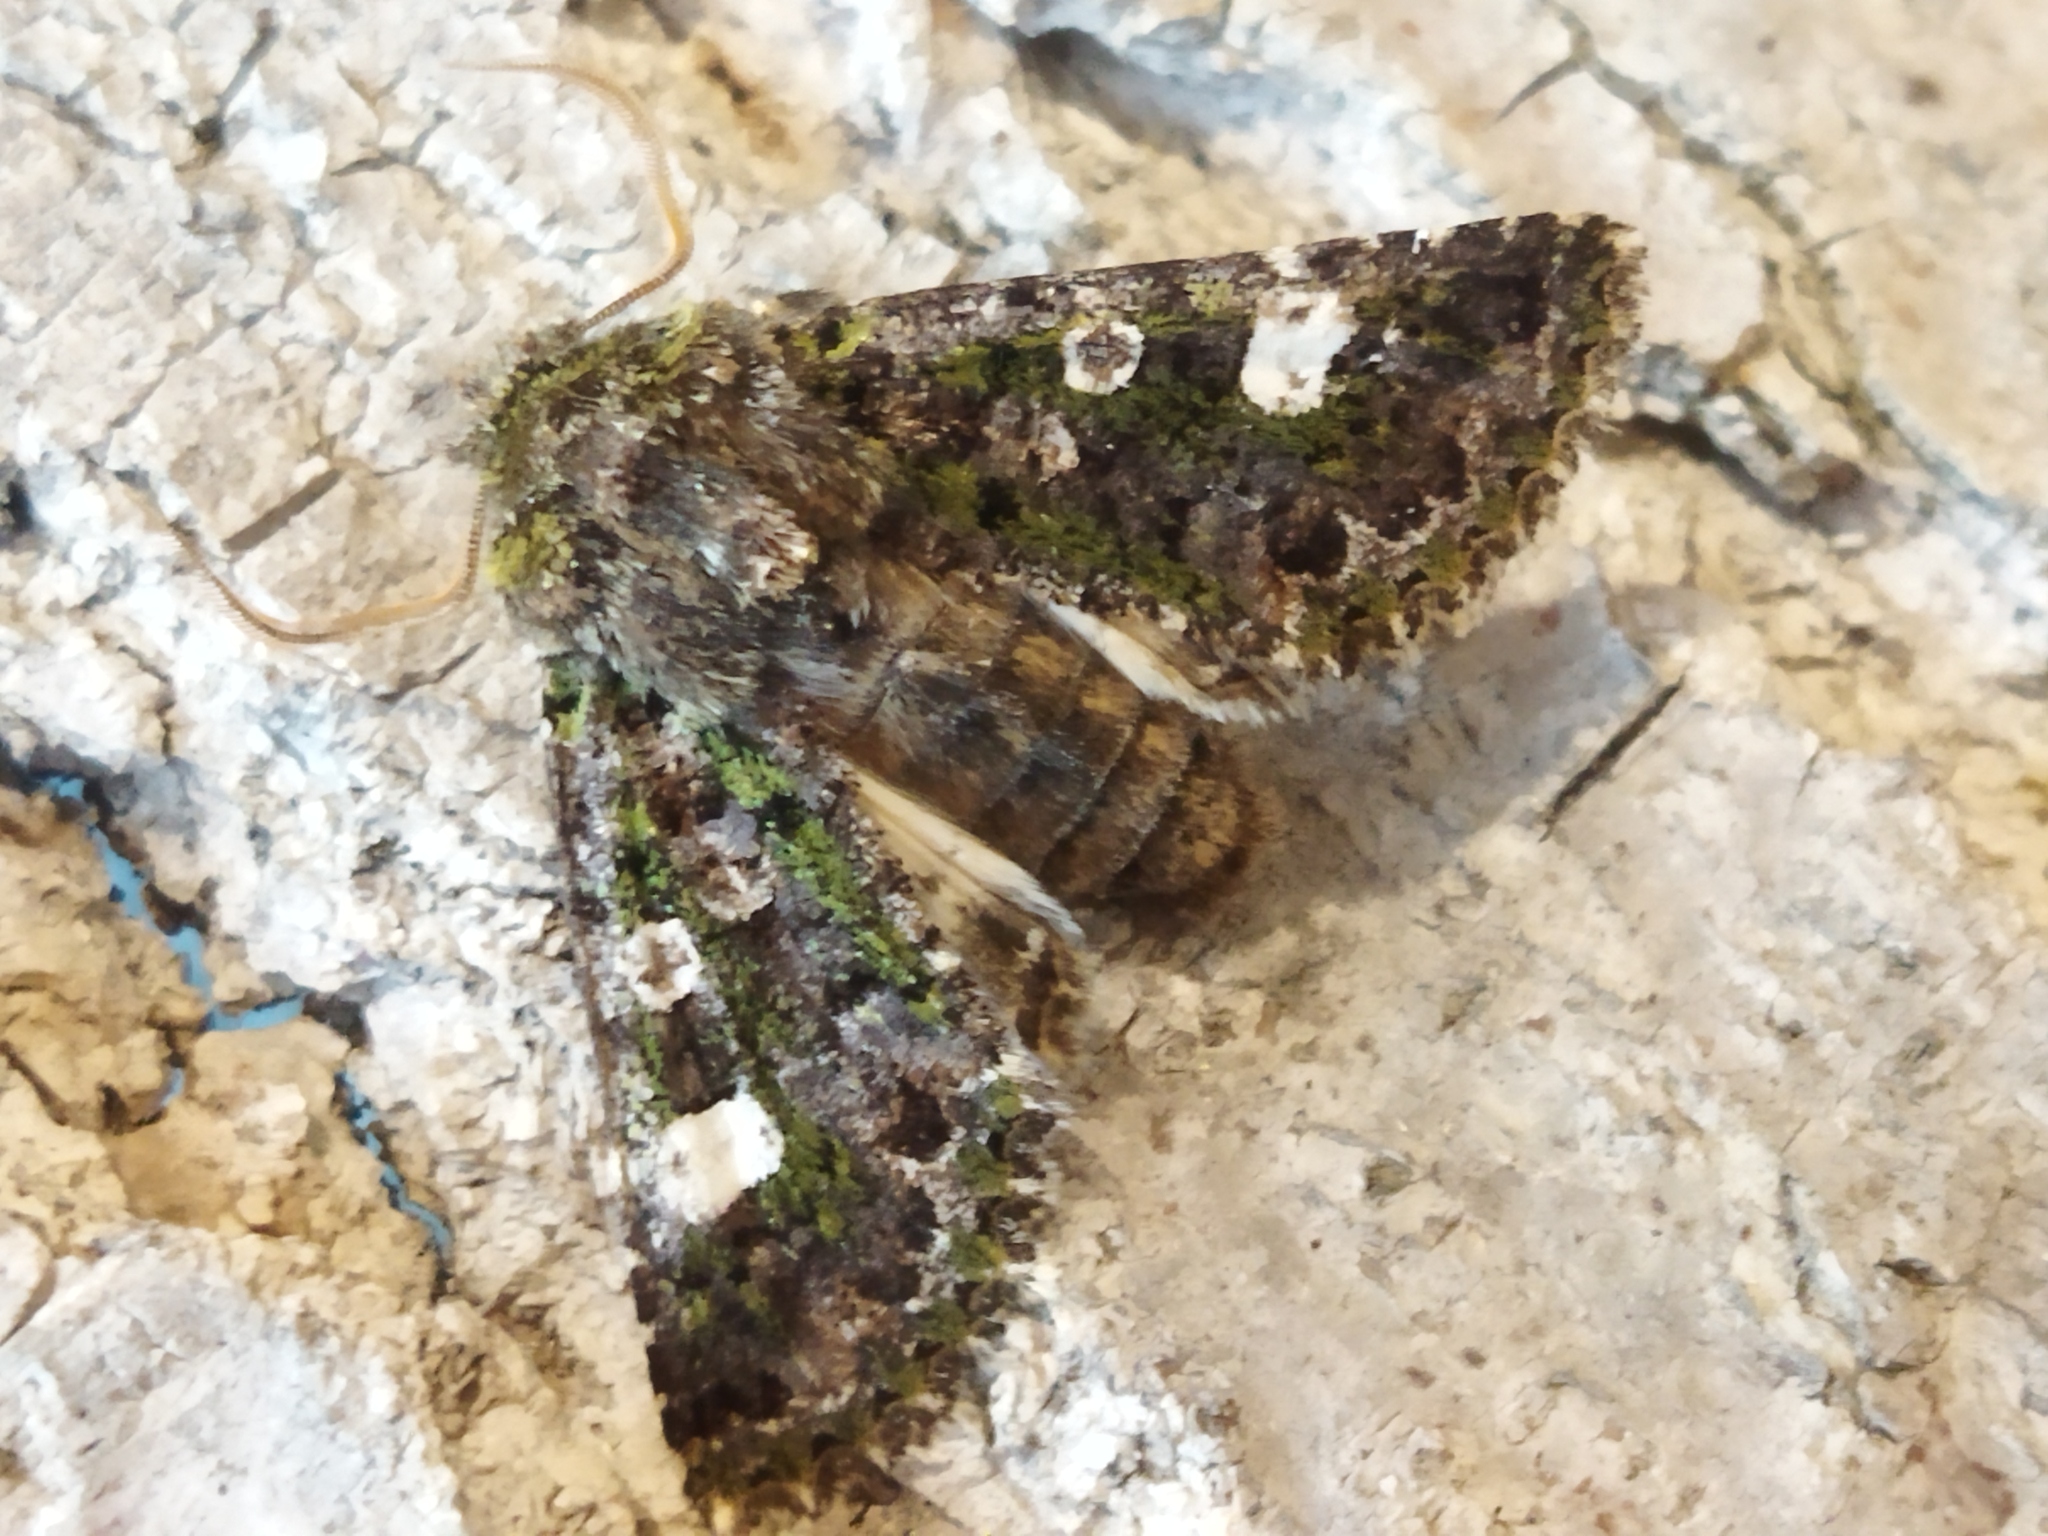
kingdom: Animalia
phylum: Arthropoda
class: Insecta
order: Lepidoptera
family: Noctuidae
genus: Valeria
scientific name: Valeria oleagina
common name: Green-brindled dot
